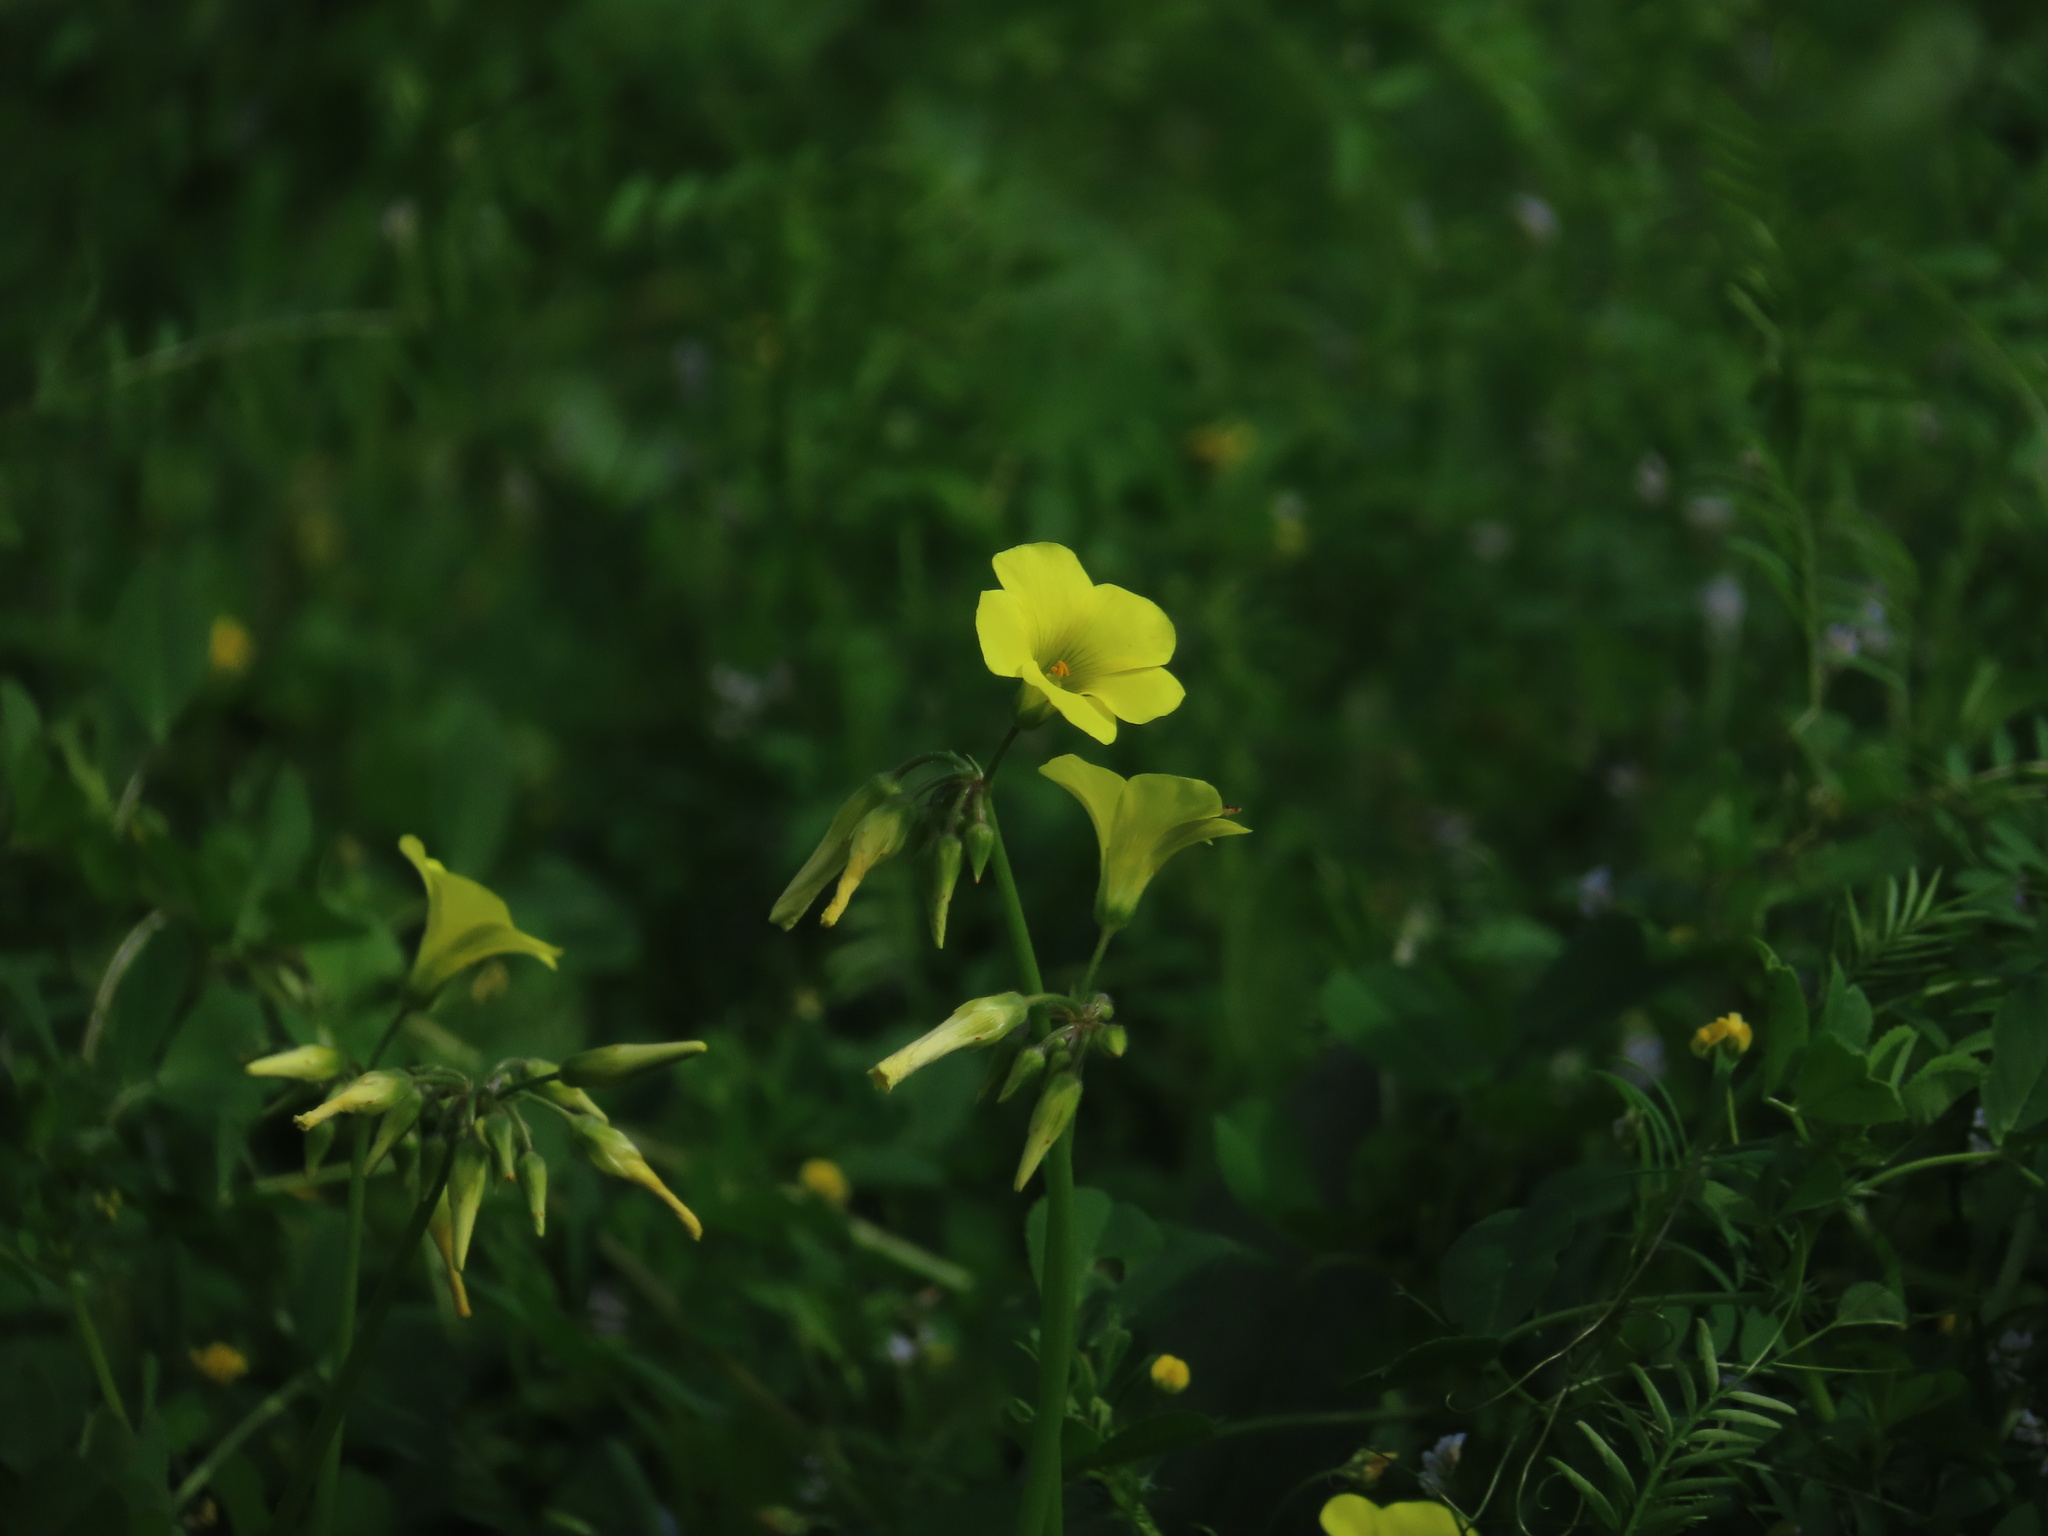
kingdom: Plantae
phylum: Tracheophyta
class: Magnoliopsida
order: Oxalidales
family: Oxalidaceae
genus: Oxalis
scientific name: Oxalis pes-caprae
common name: Bermuda-buttercup
